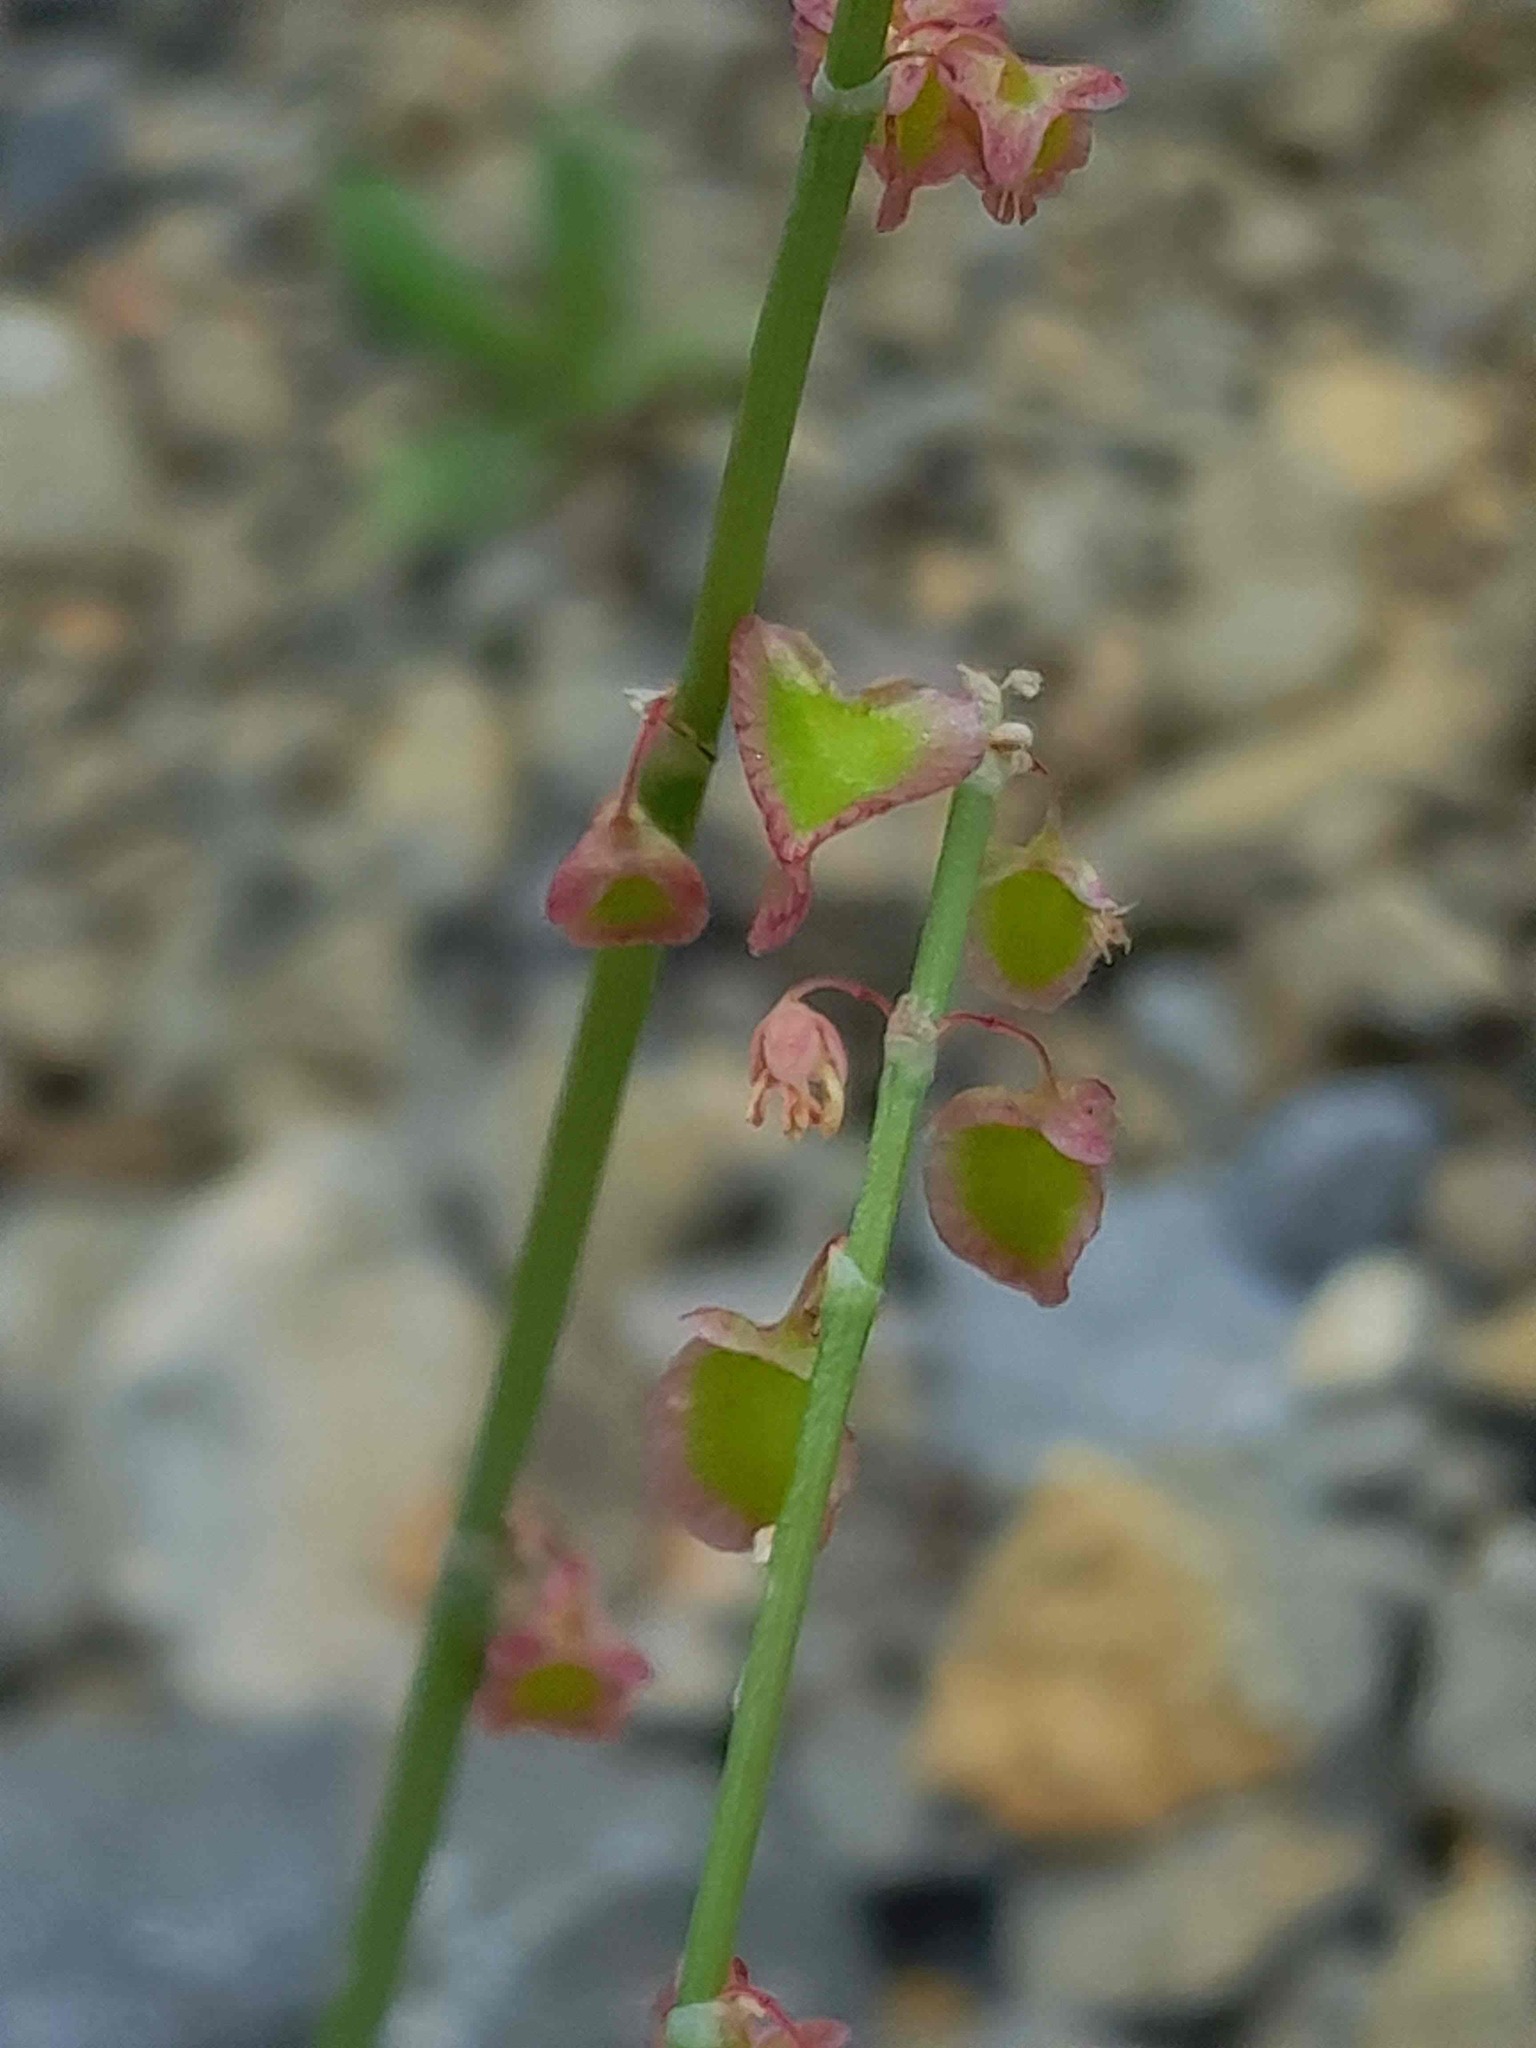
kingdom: Plantae
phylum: Tracheophyta
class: Magnoliopsida
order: Caryophyllales
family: Polygonaceae
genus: Rumex
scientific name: Rumex scutatus
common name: French sorrel
